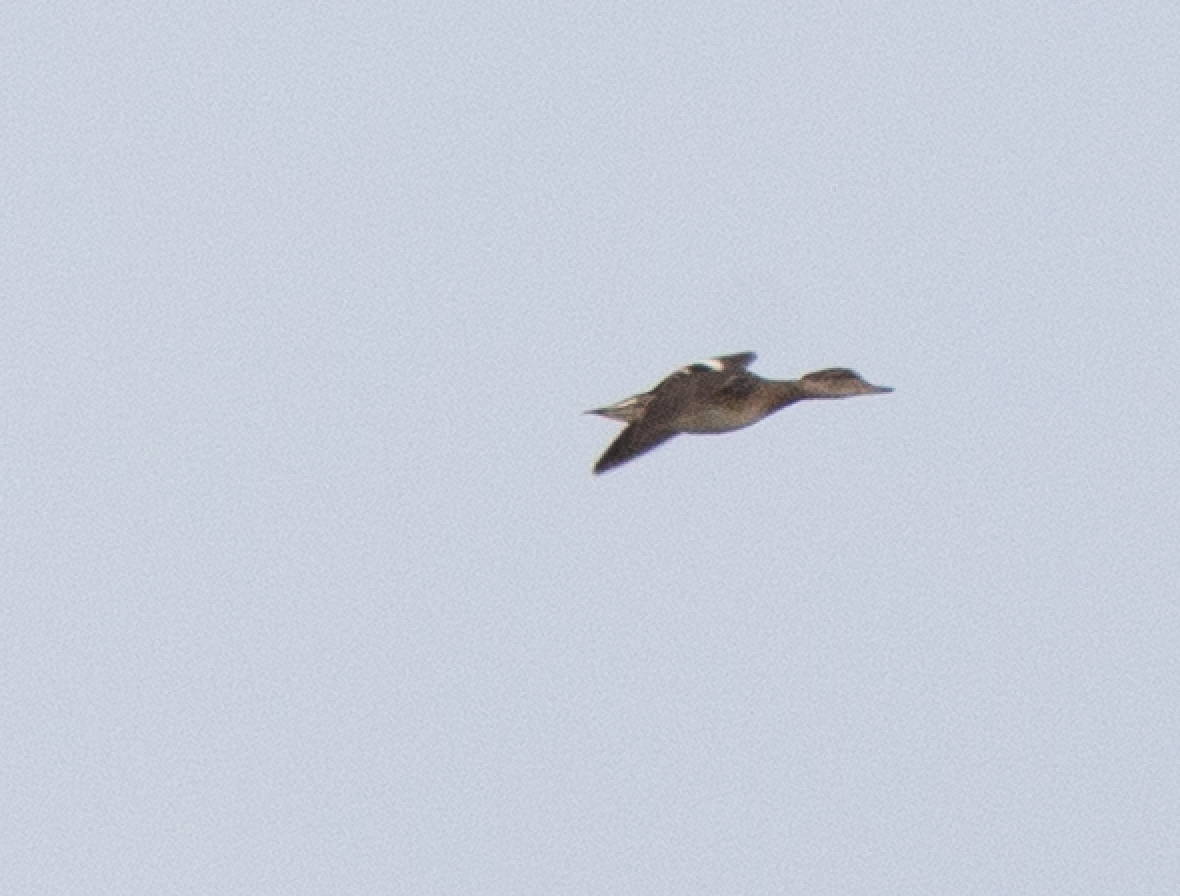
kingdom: Animalia
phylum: Chordata
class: Aves
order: Anseriformes
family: Anatidae
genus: Anas
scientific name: Anas crecca
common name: Eurasian teal
